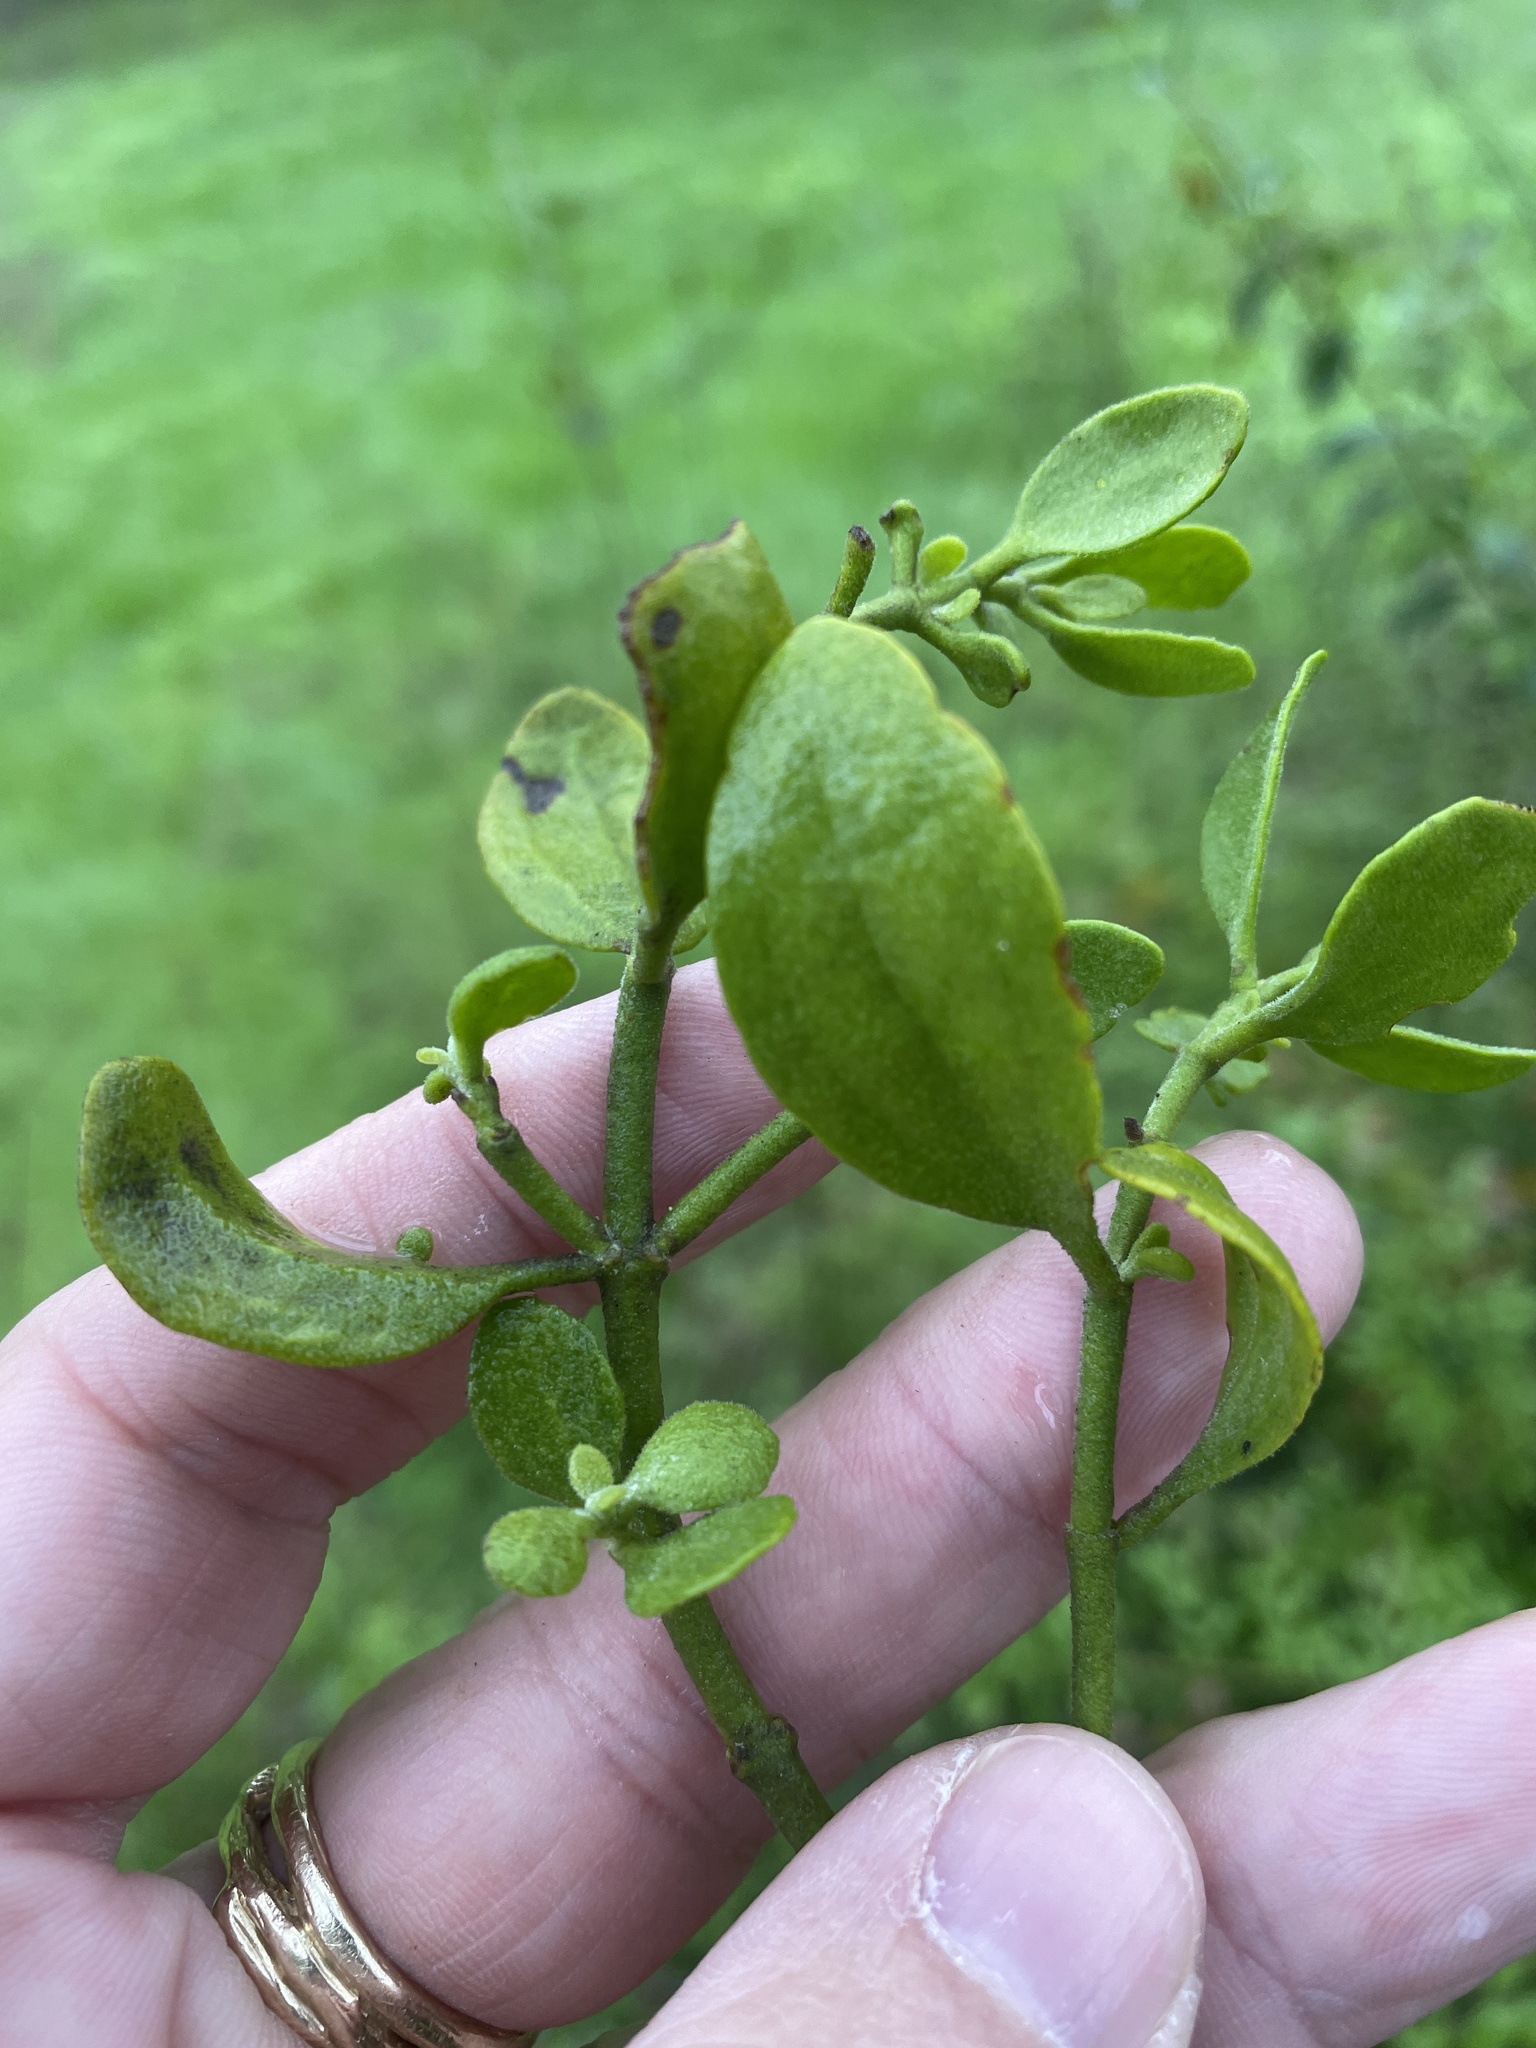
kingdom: Plantae
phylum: Tracheophyta
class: Magnoliopsida
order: Santalales
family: Viscaceae
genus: Phoradendron
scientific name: Phoradendron leucarpum
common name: Pacific mistletoe
